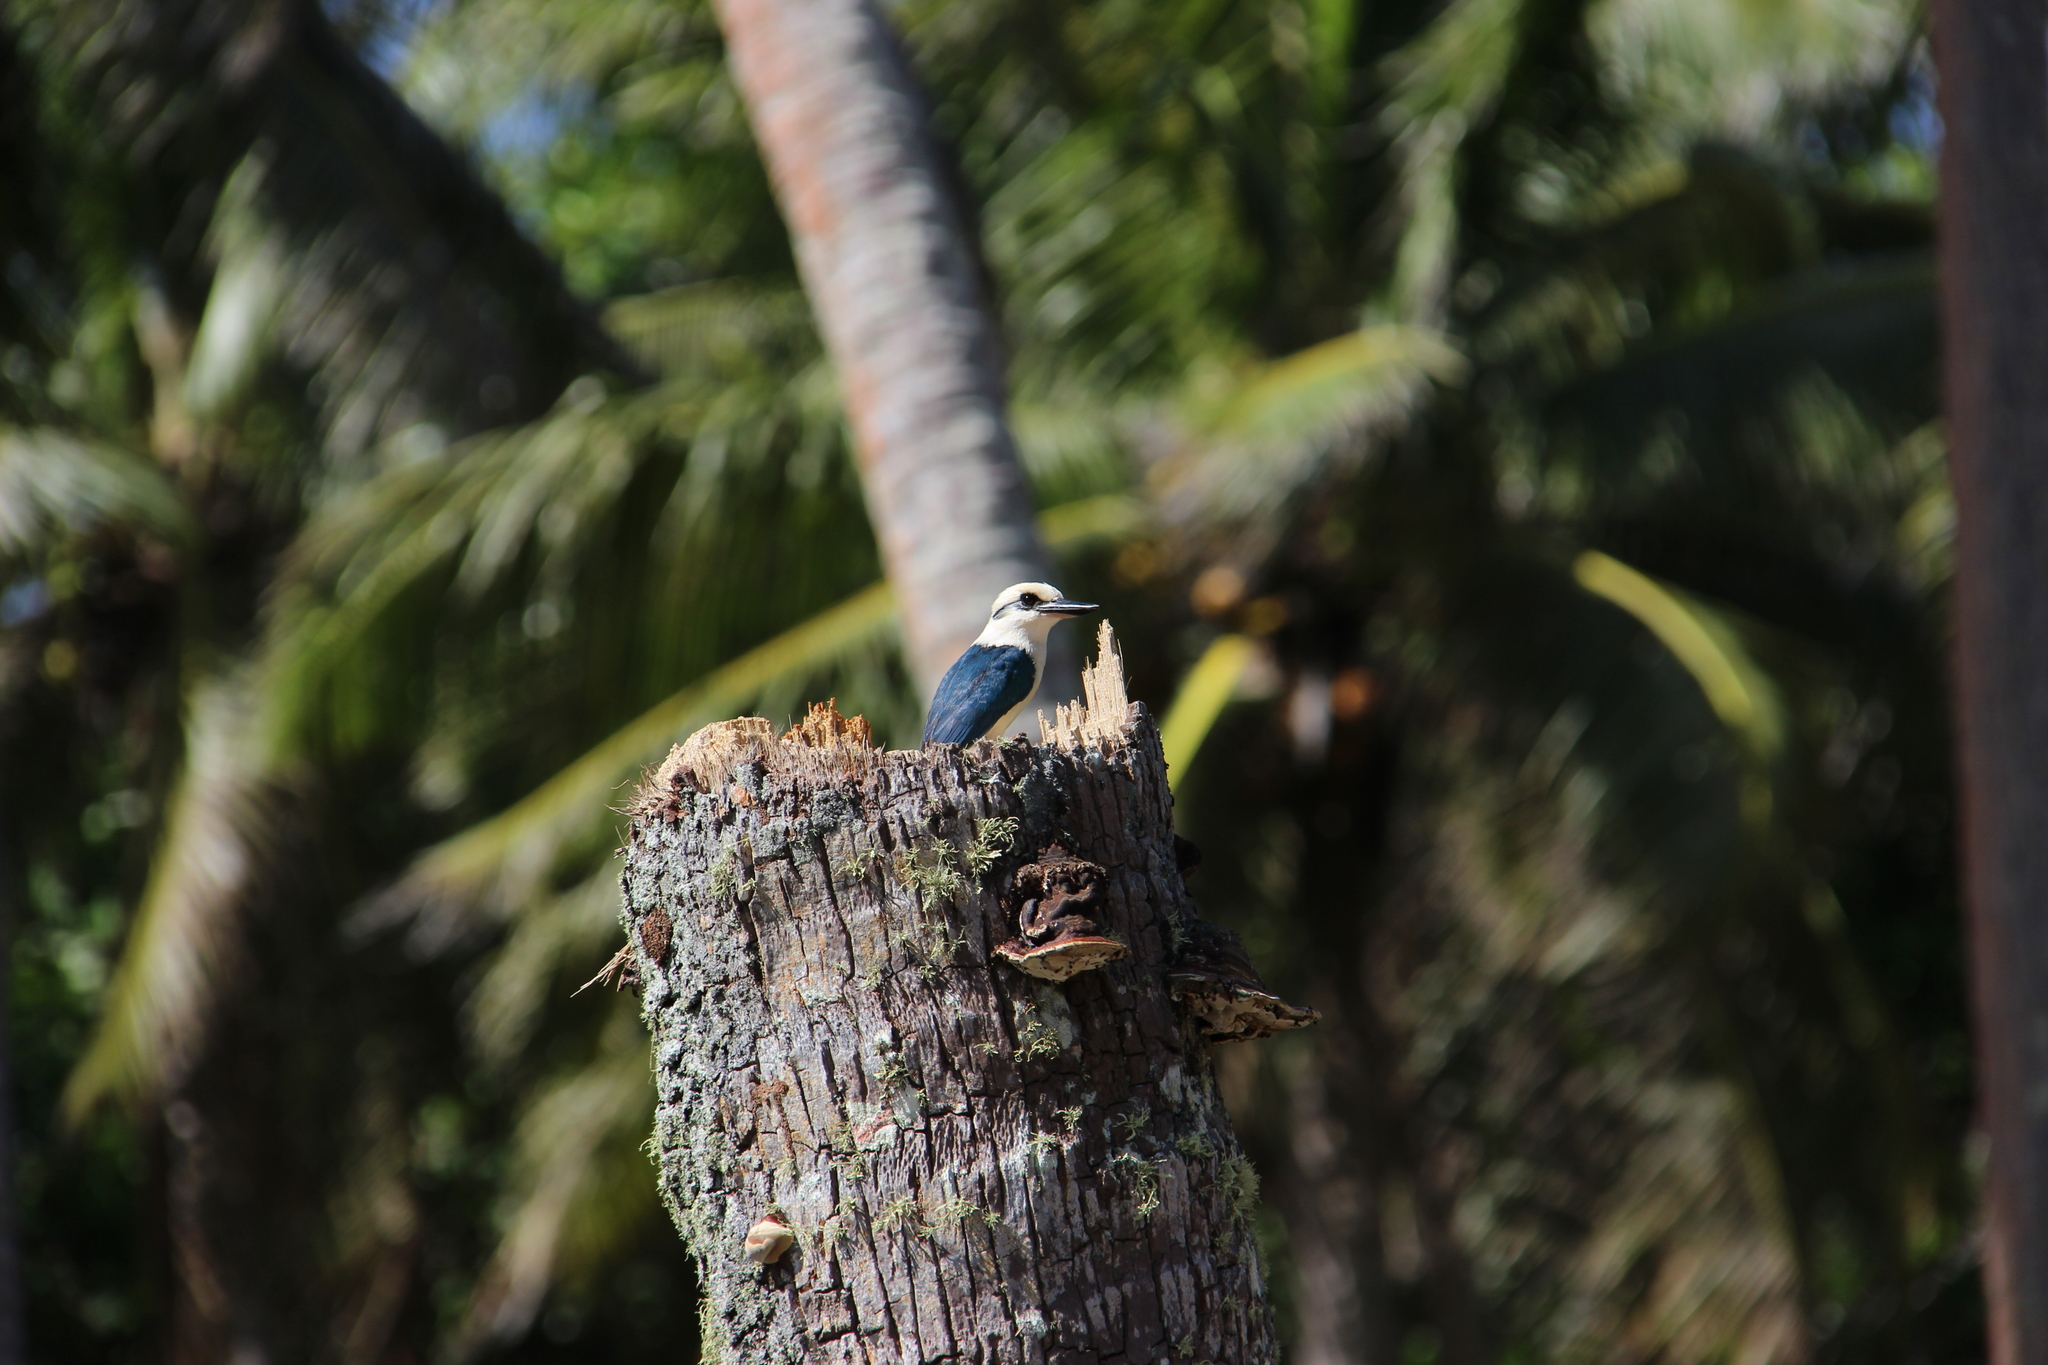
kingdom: Animalia
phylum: Chordata
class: Aves
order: Coraciiformes
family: Alcedinidae
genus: Todiramphus
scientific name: Todiramphus tutus
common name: Chattering kingfisher
